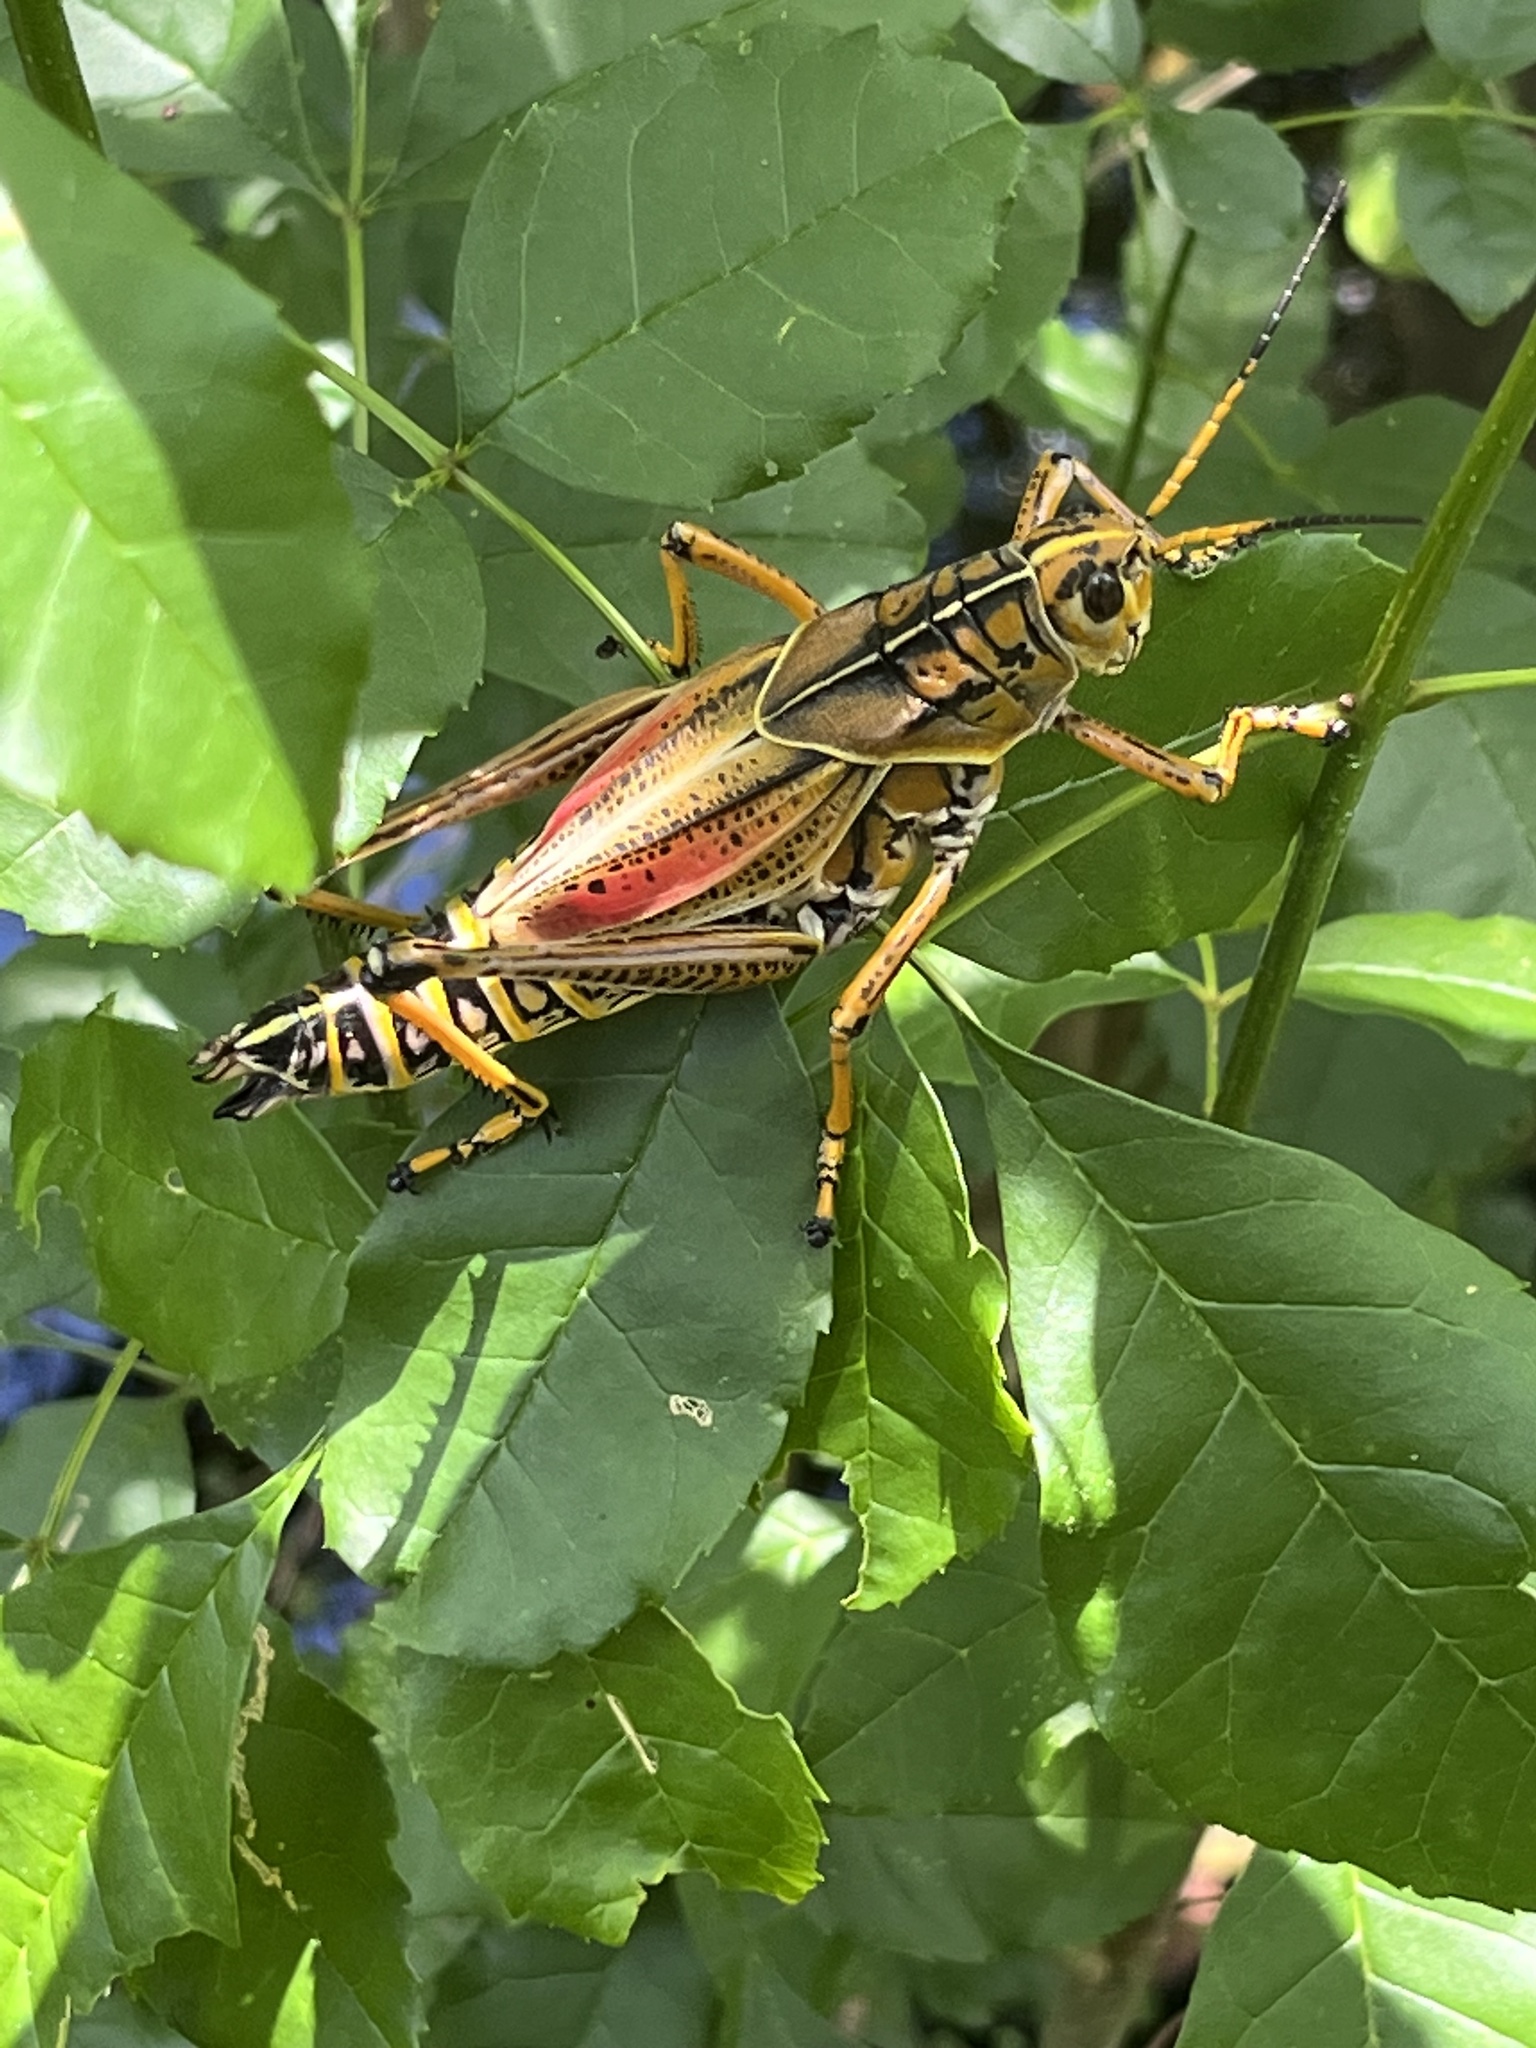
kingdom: Animalia
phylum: Arthropoda
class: Insecta
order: Orthoptera
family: Romaleidae
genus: Romalea
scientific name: Romalea microptera
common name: Eastern lubber grasshopper
